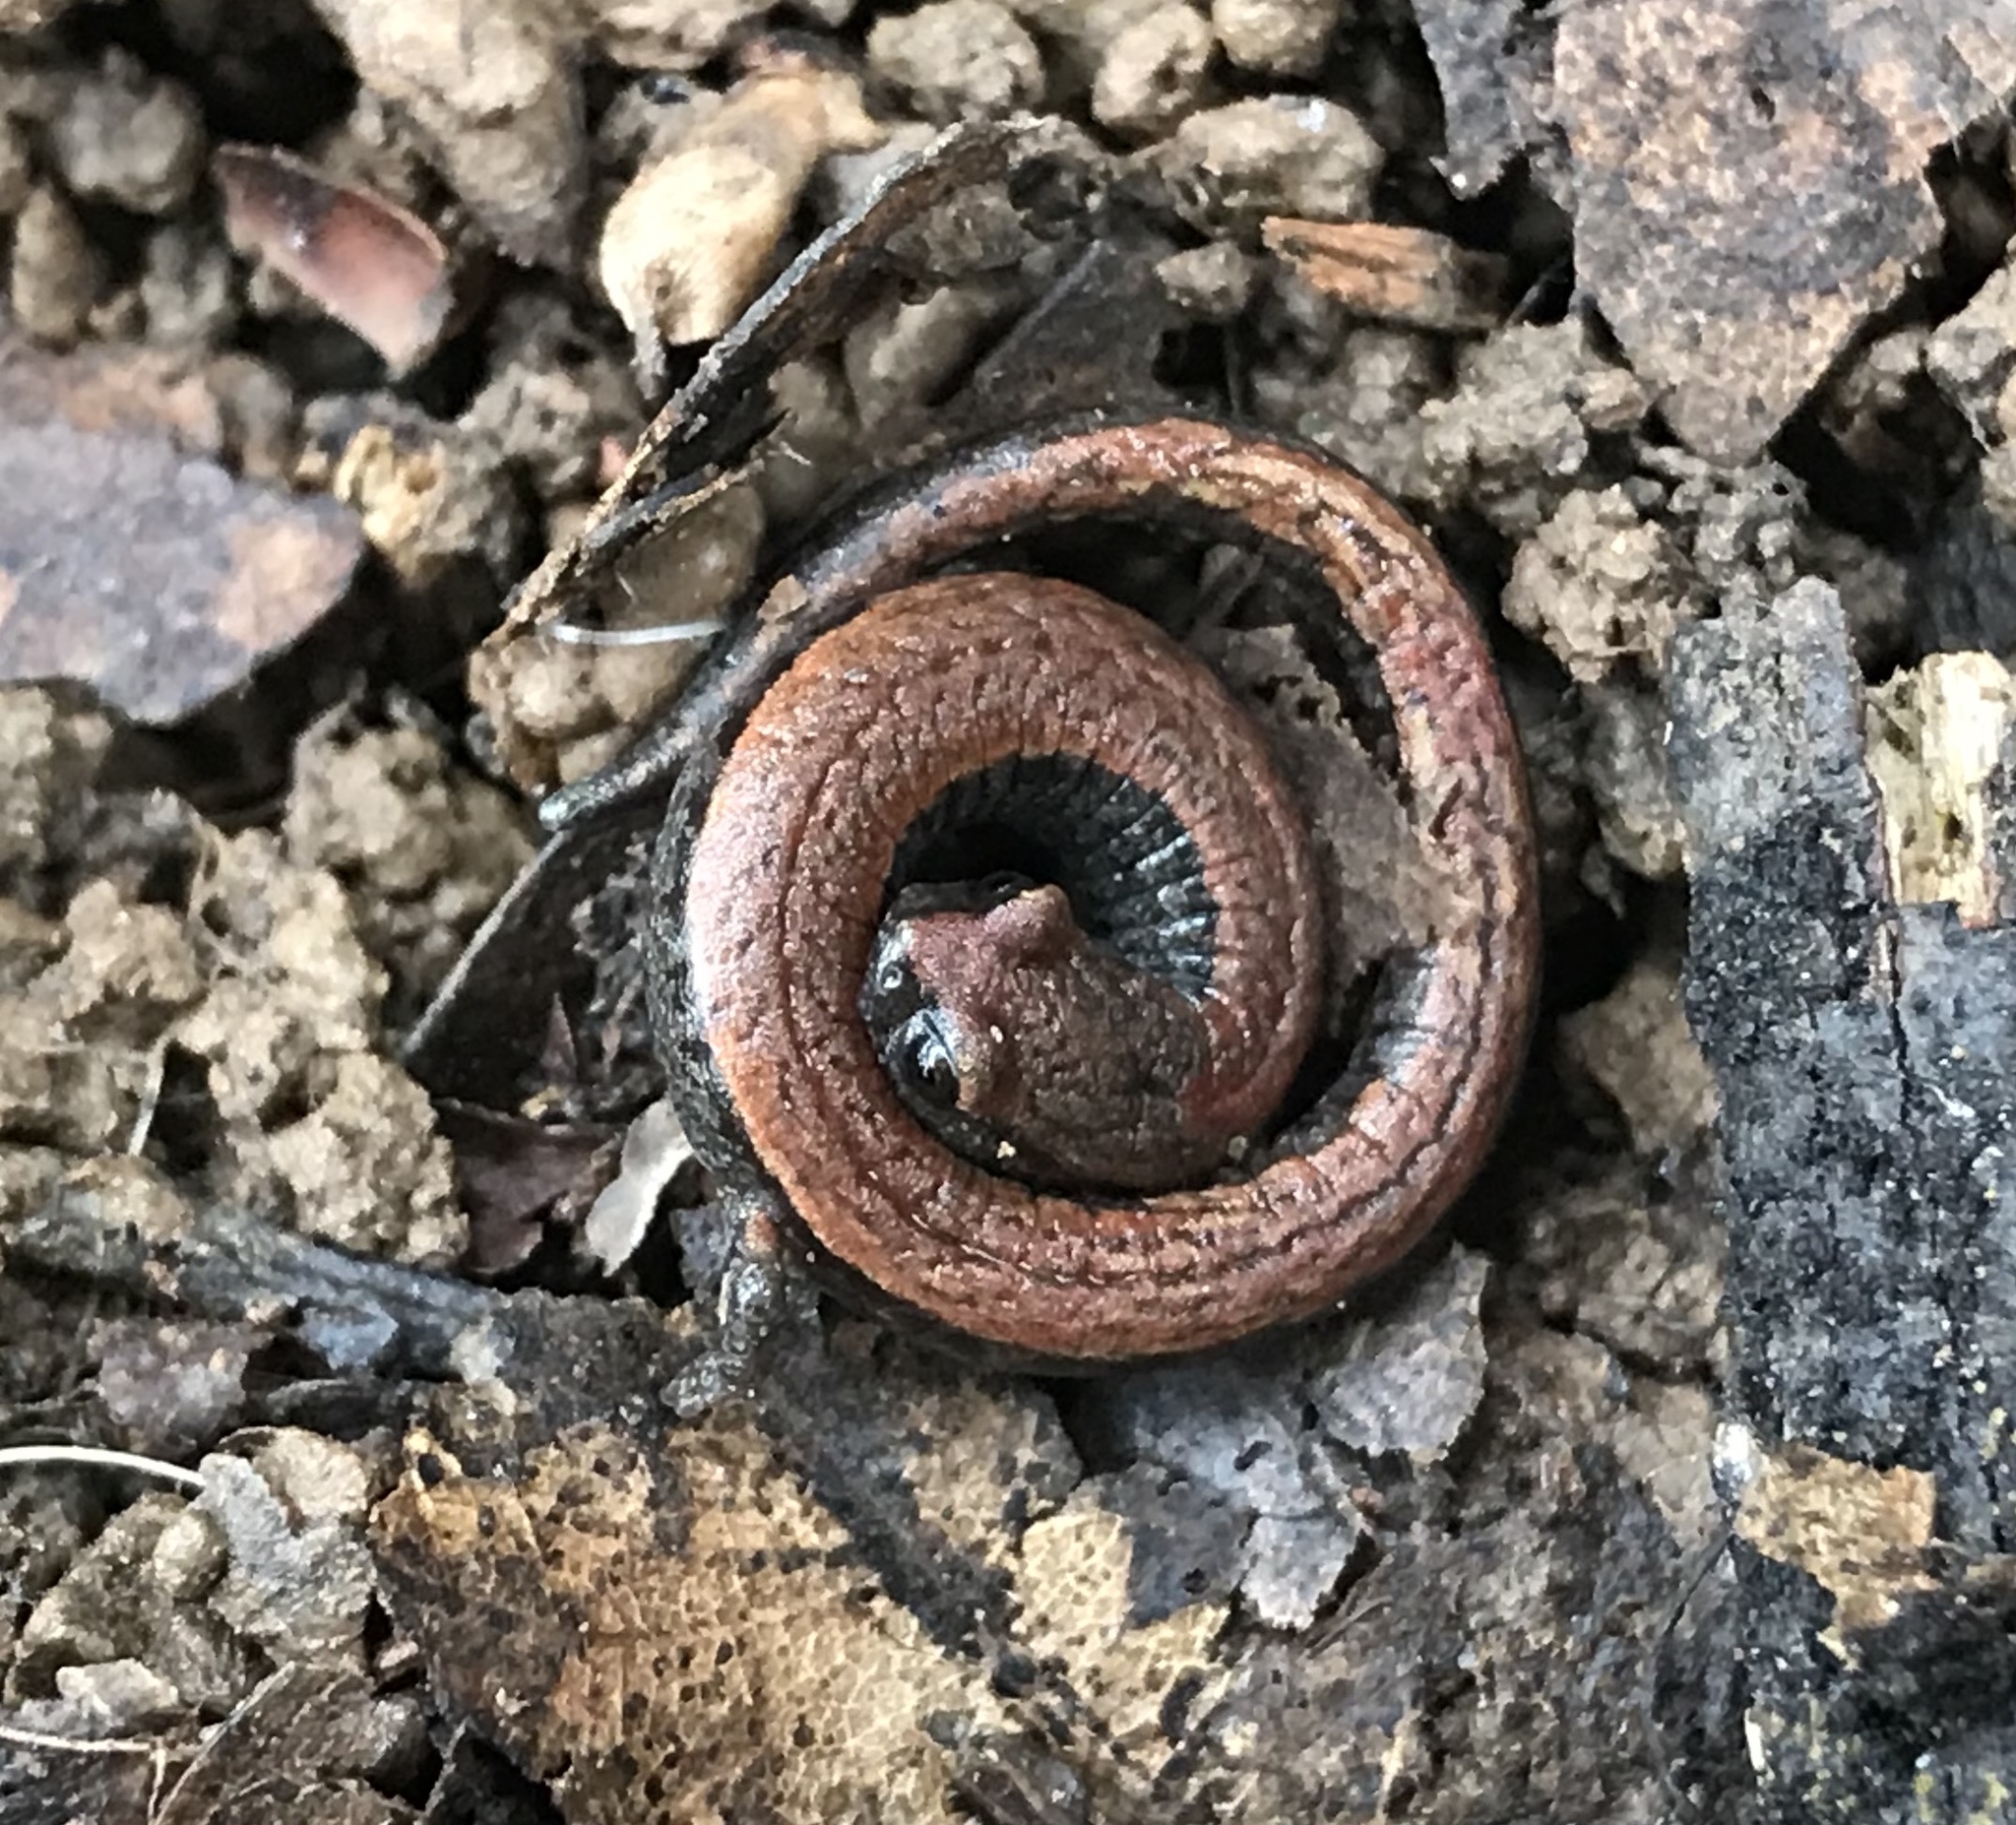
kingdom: Animalia
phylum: Chordata
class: Amphibia
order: Caudata
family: Plethodontidae
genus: Batrachoseps
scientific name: Batrachoseps attenuatus
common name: California slender salamander
